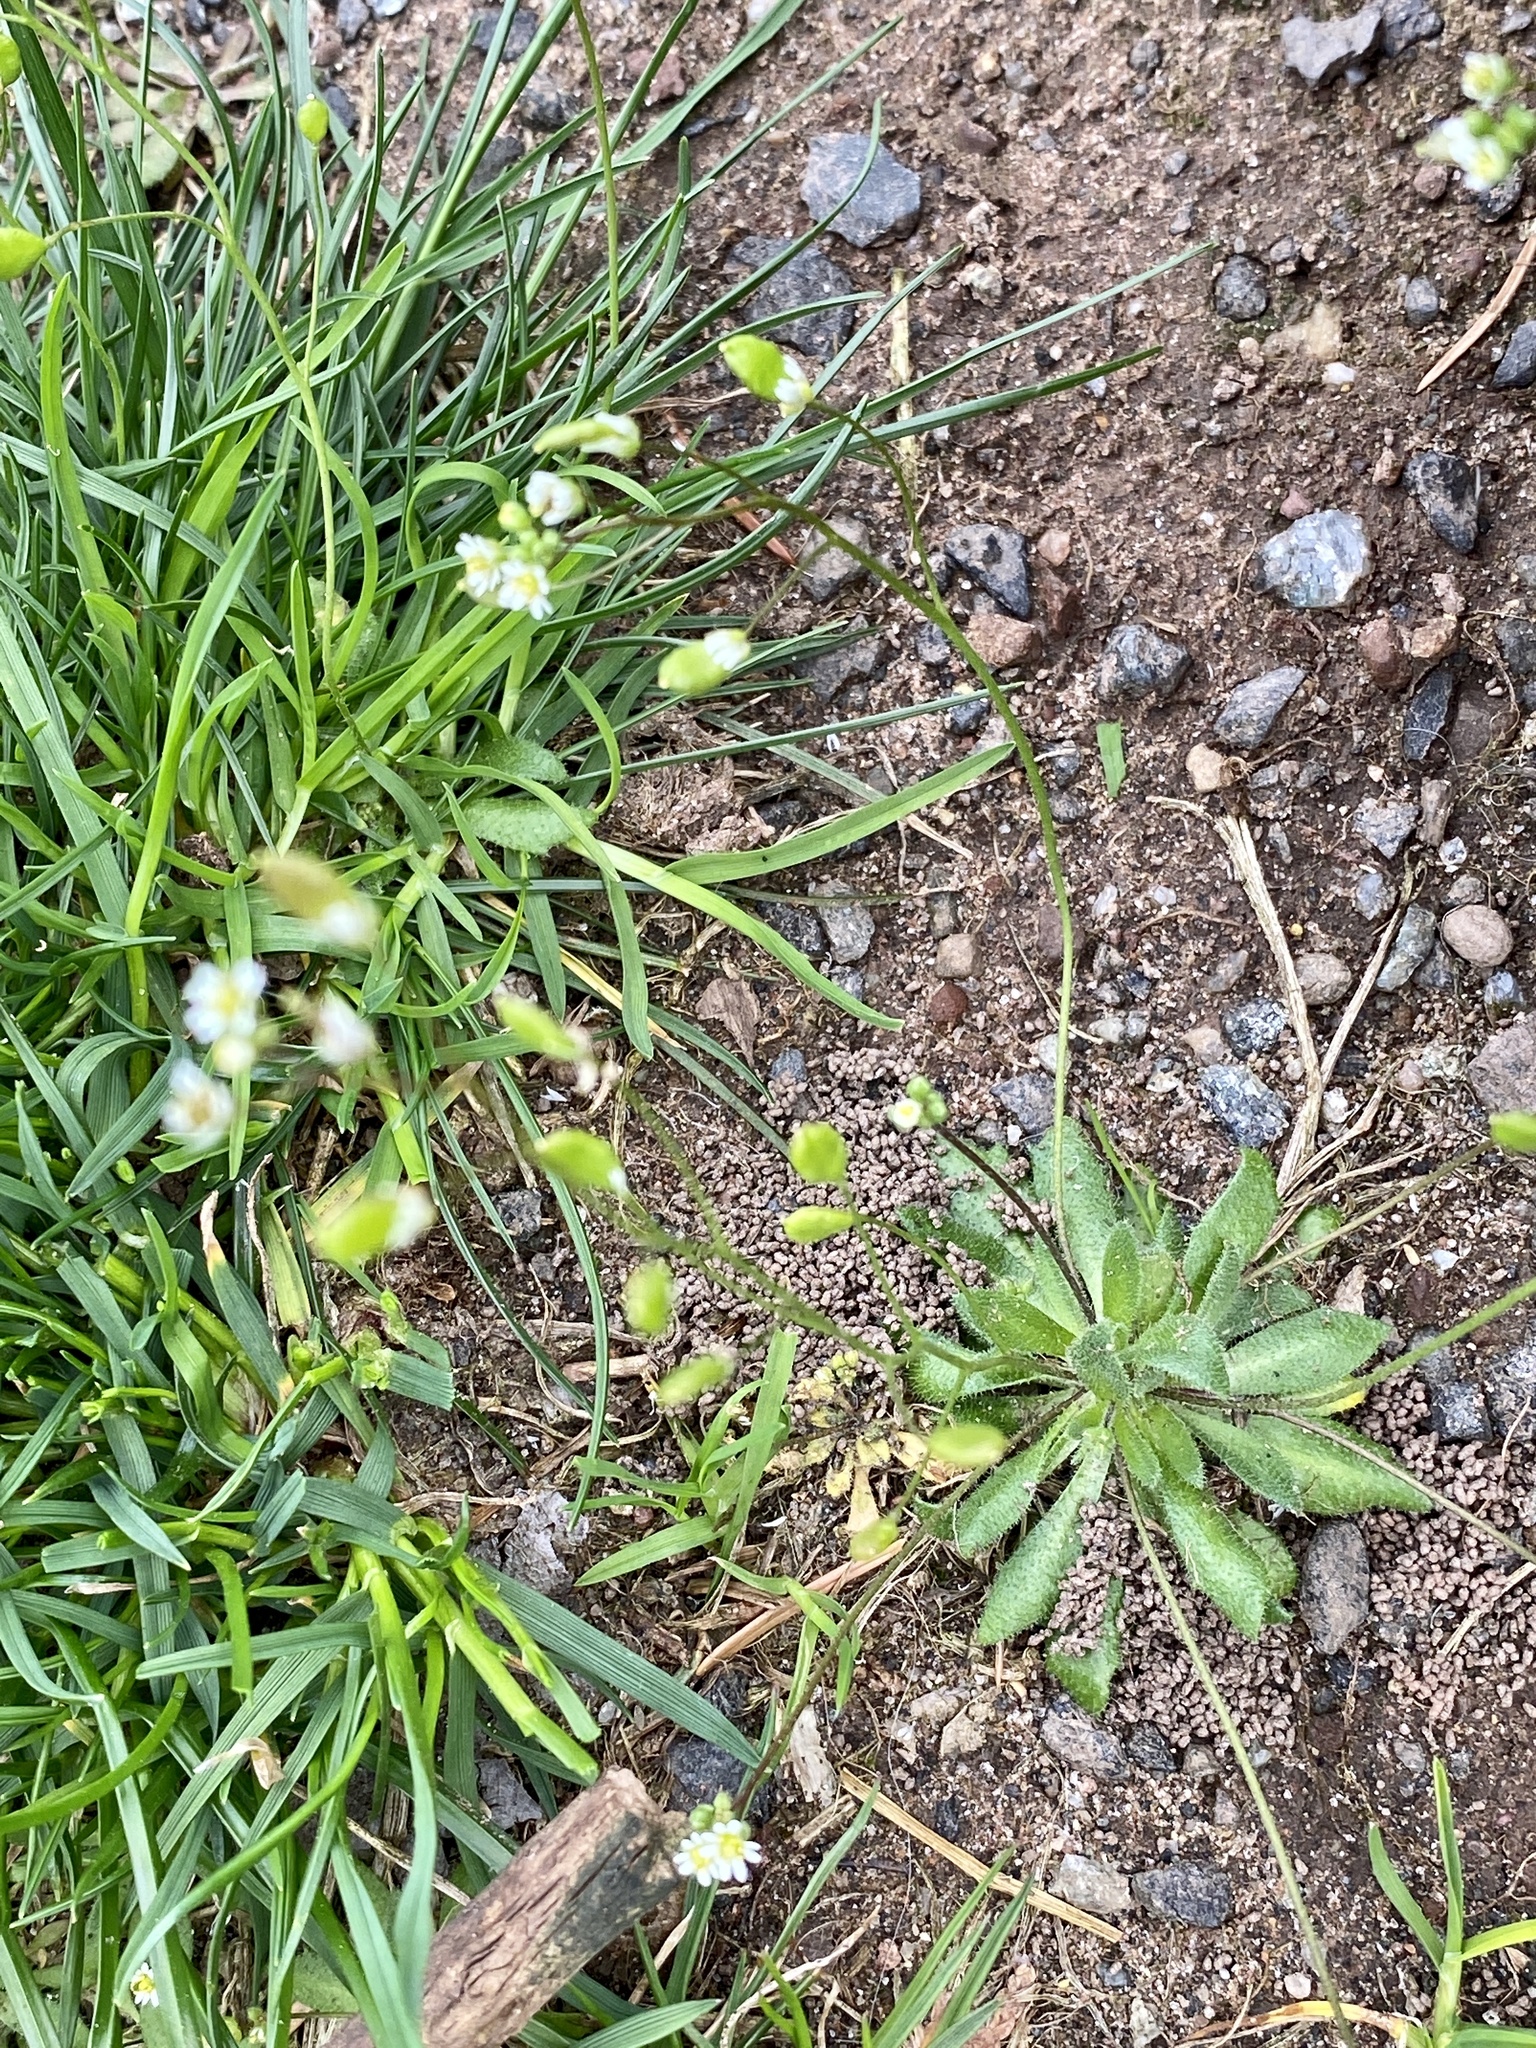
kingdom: Plantae
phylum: Tracheophyta
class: Magnoliopsida
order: Brassicales
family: Brassicaceae
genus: Draba
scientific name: Draba verna
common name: Spring draba
